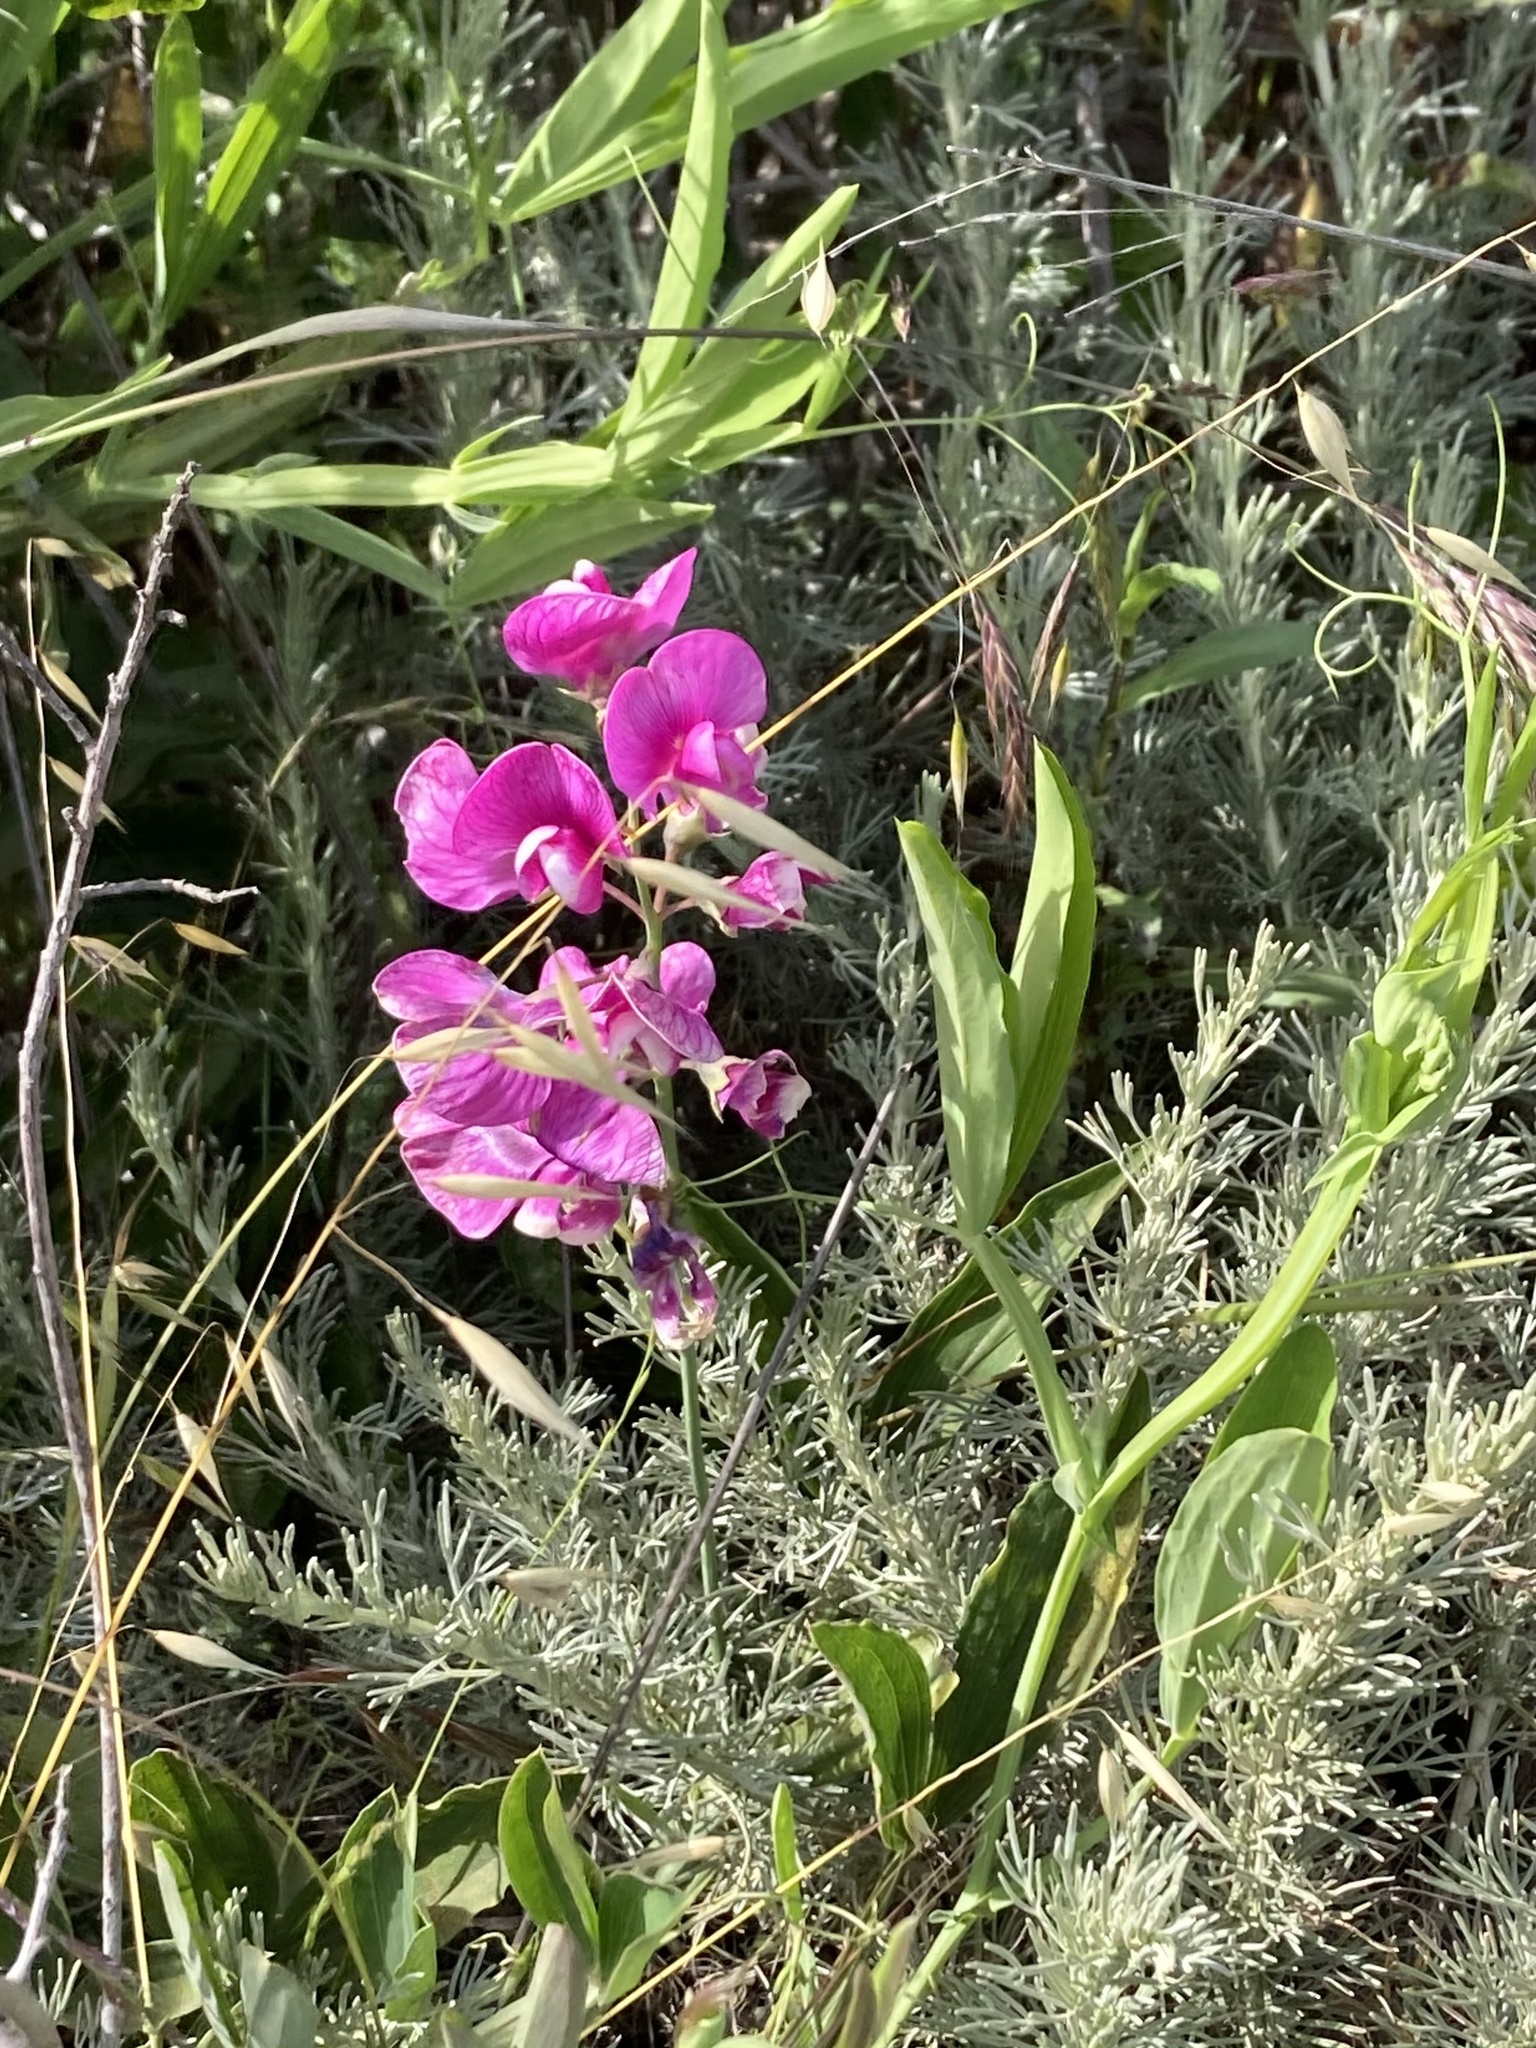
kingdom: Plantae
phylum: Tracheophyta
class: Magnoliopsida
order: Fabales
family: Fabaceae
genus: Lathyrus
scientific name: Lathyrus latifolius
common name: Perennial pea
